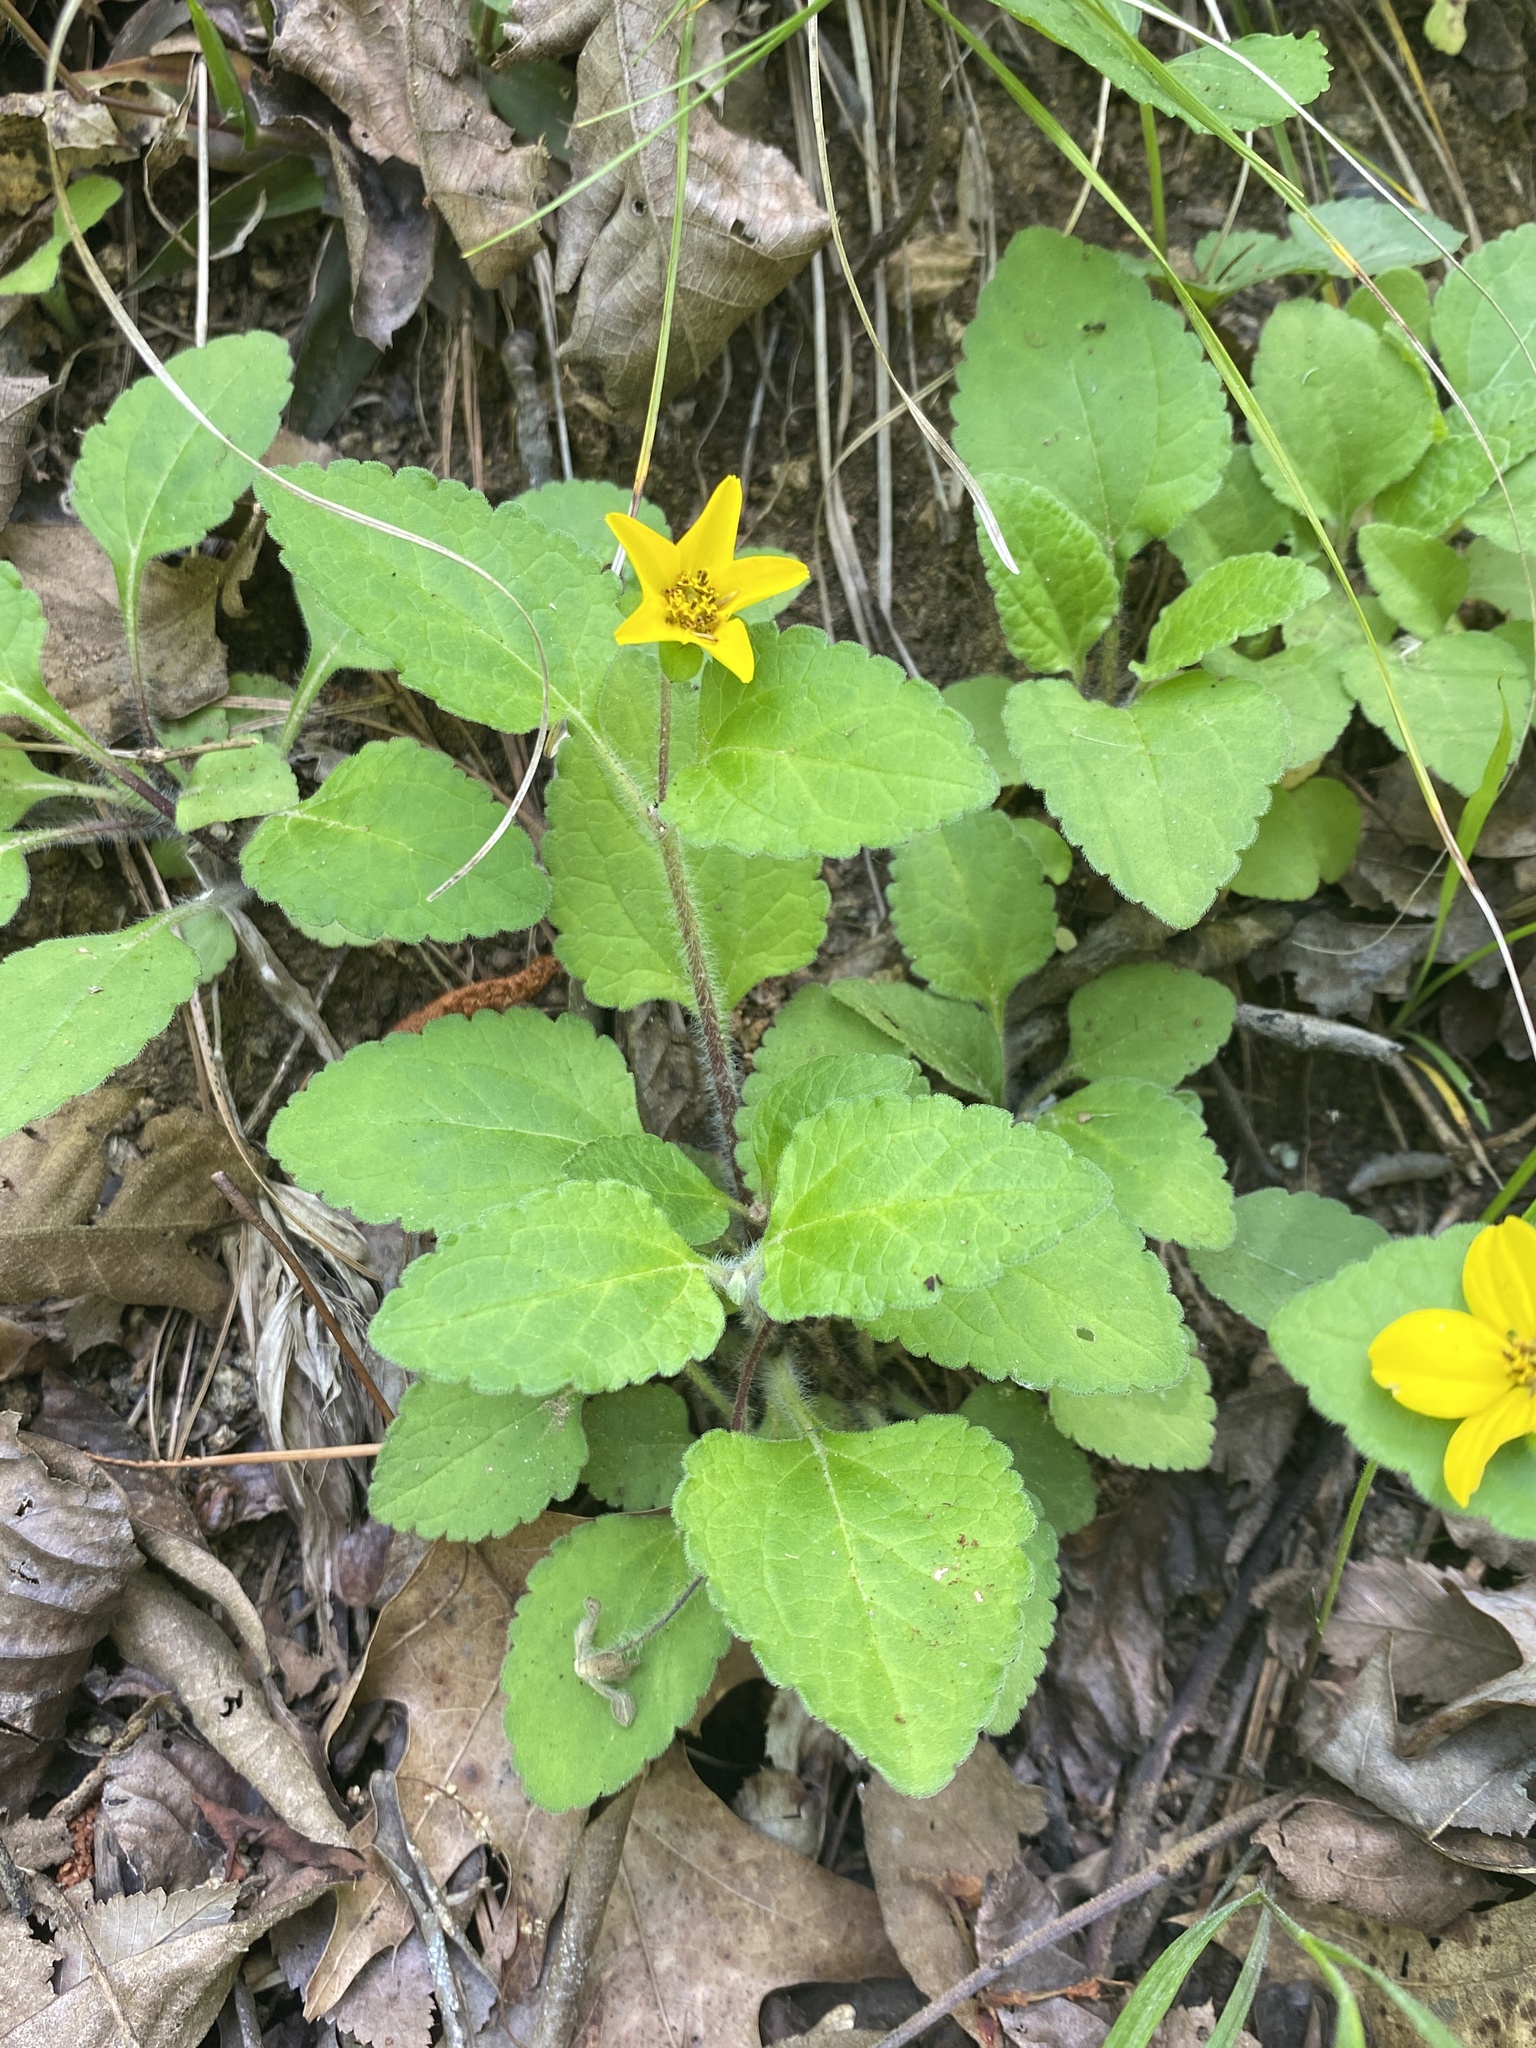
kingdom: Plantae
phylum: Tracheophyta
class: Magnoliopsida
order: Asterales
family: Asteraceae
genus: Chrysogonum
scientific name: Chrysogonum virginianum
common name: Golden-knee
